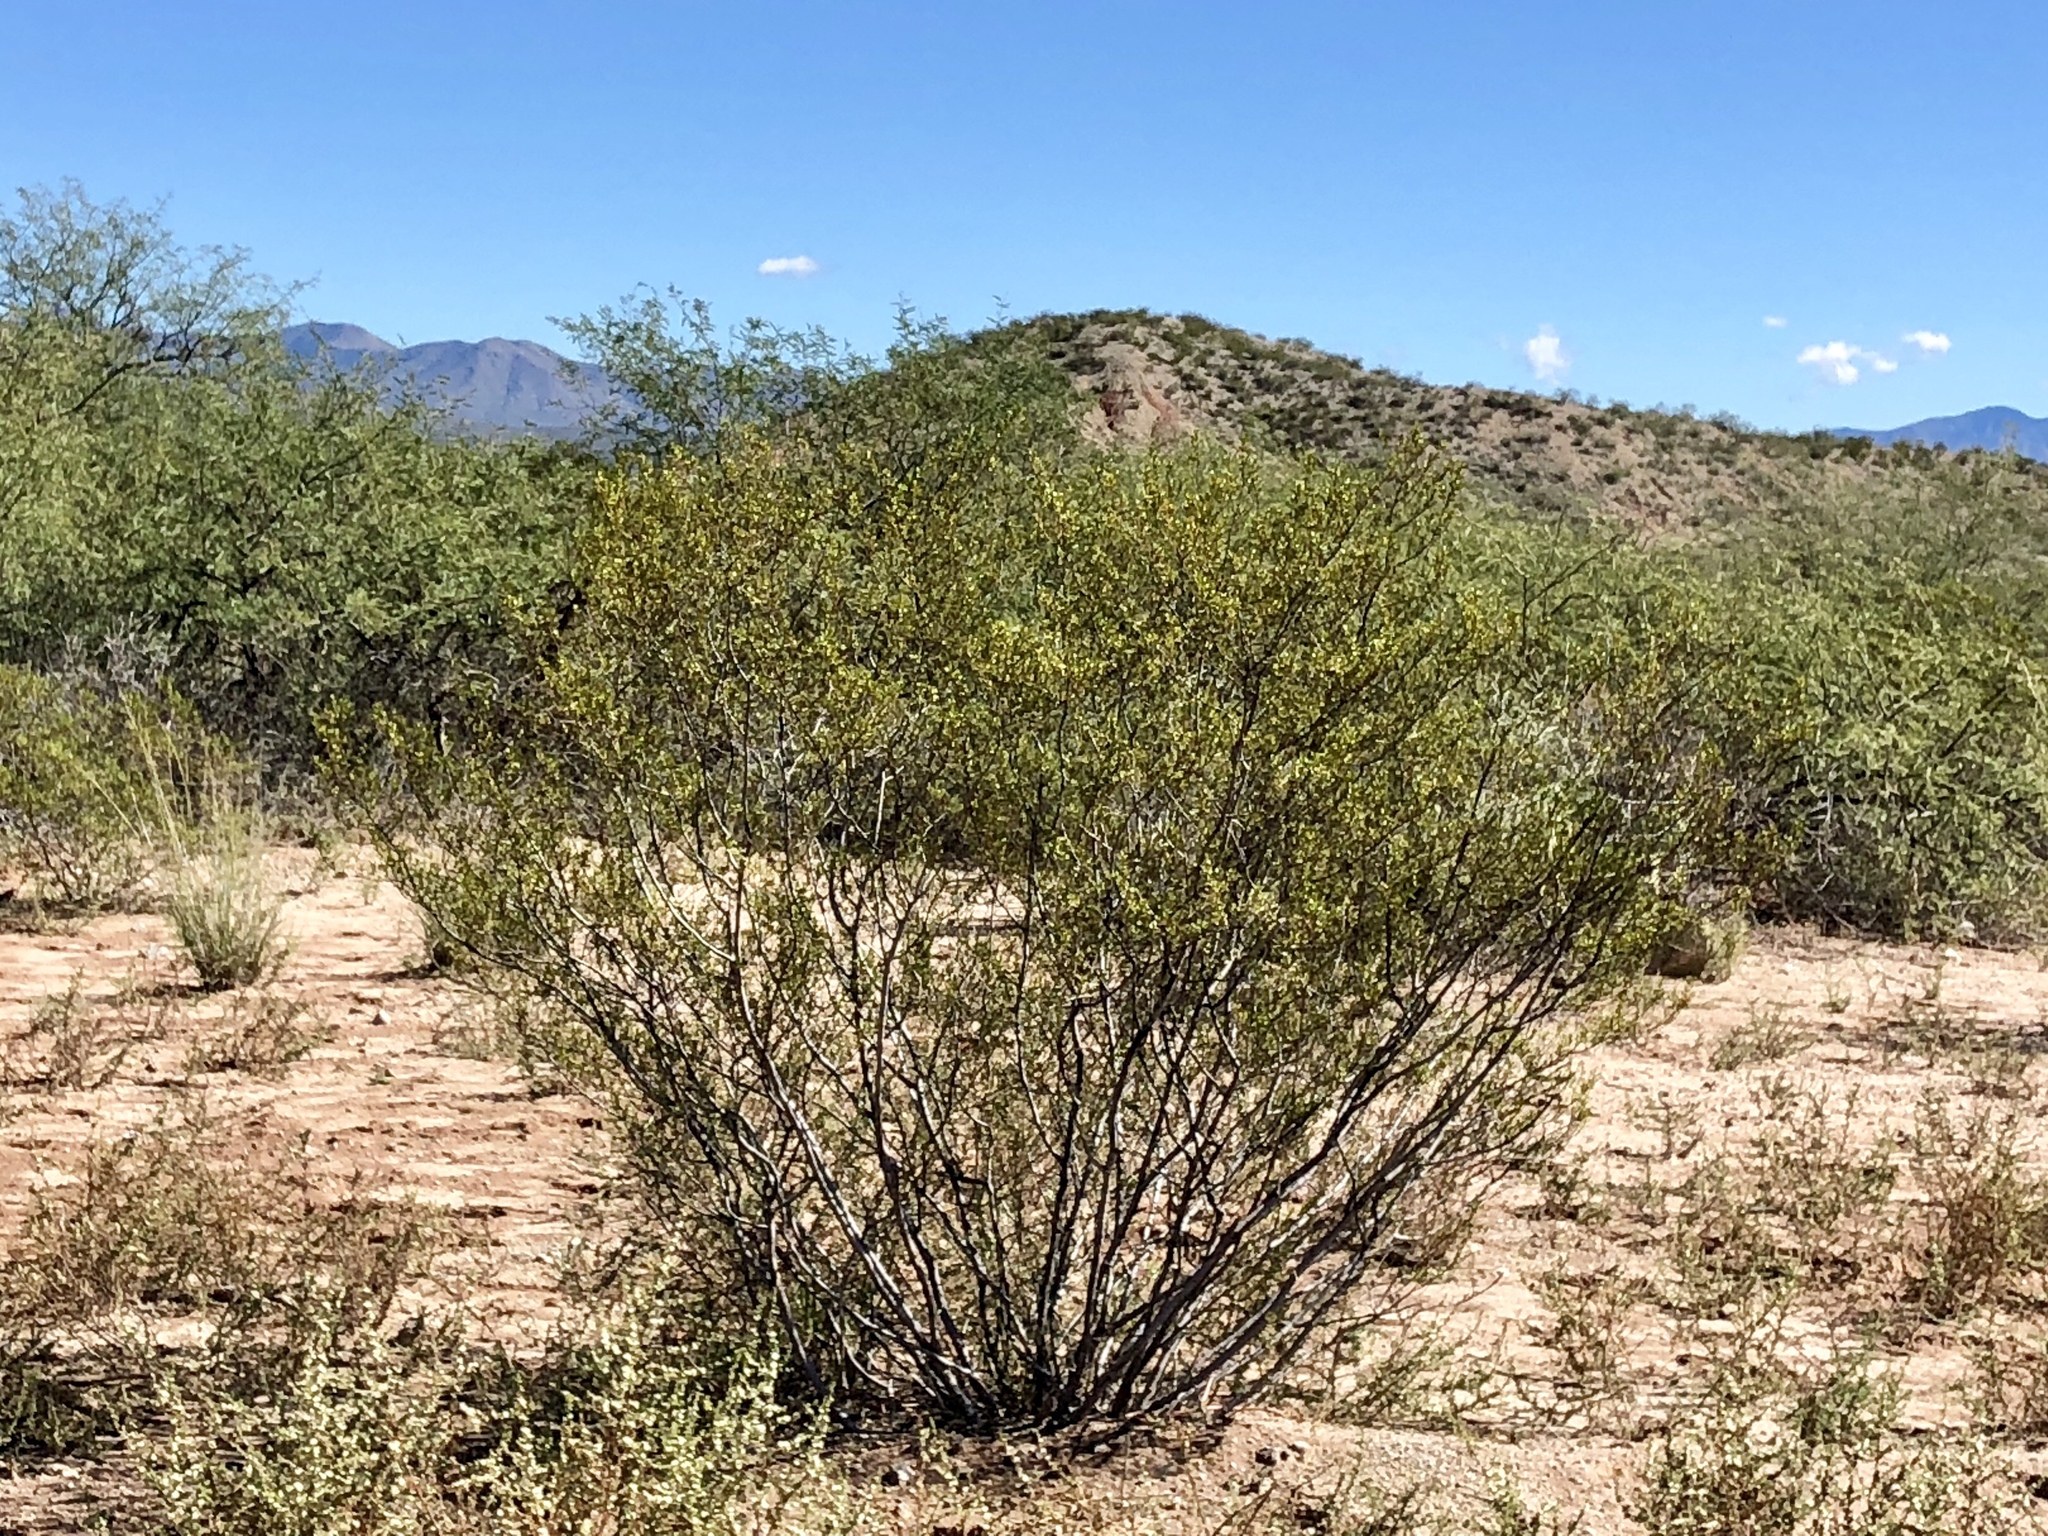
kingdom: Plantae
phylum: Tracheophyta
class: Magnoliopsida
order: Zygophyllales
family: Zygophyllaceae
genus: Larrea
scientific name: Larrea tridentata
